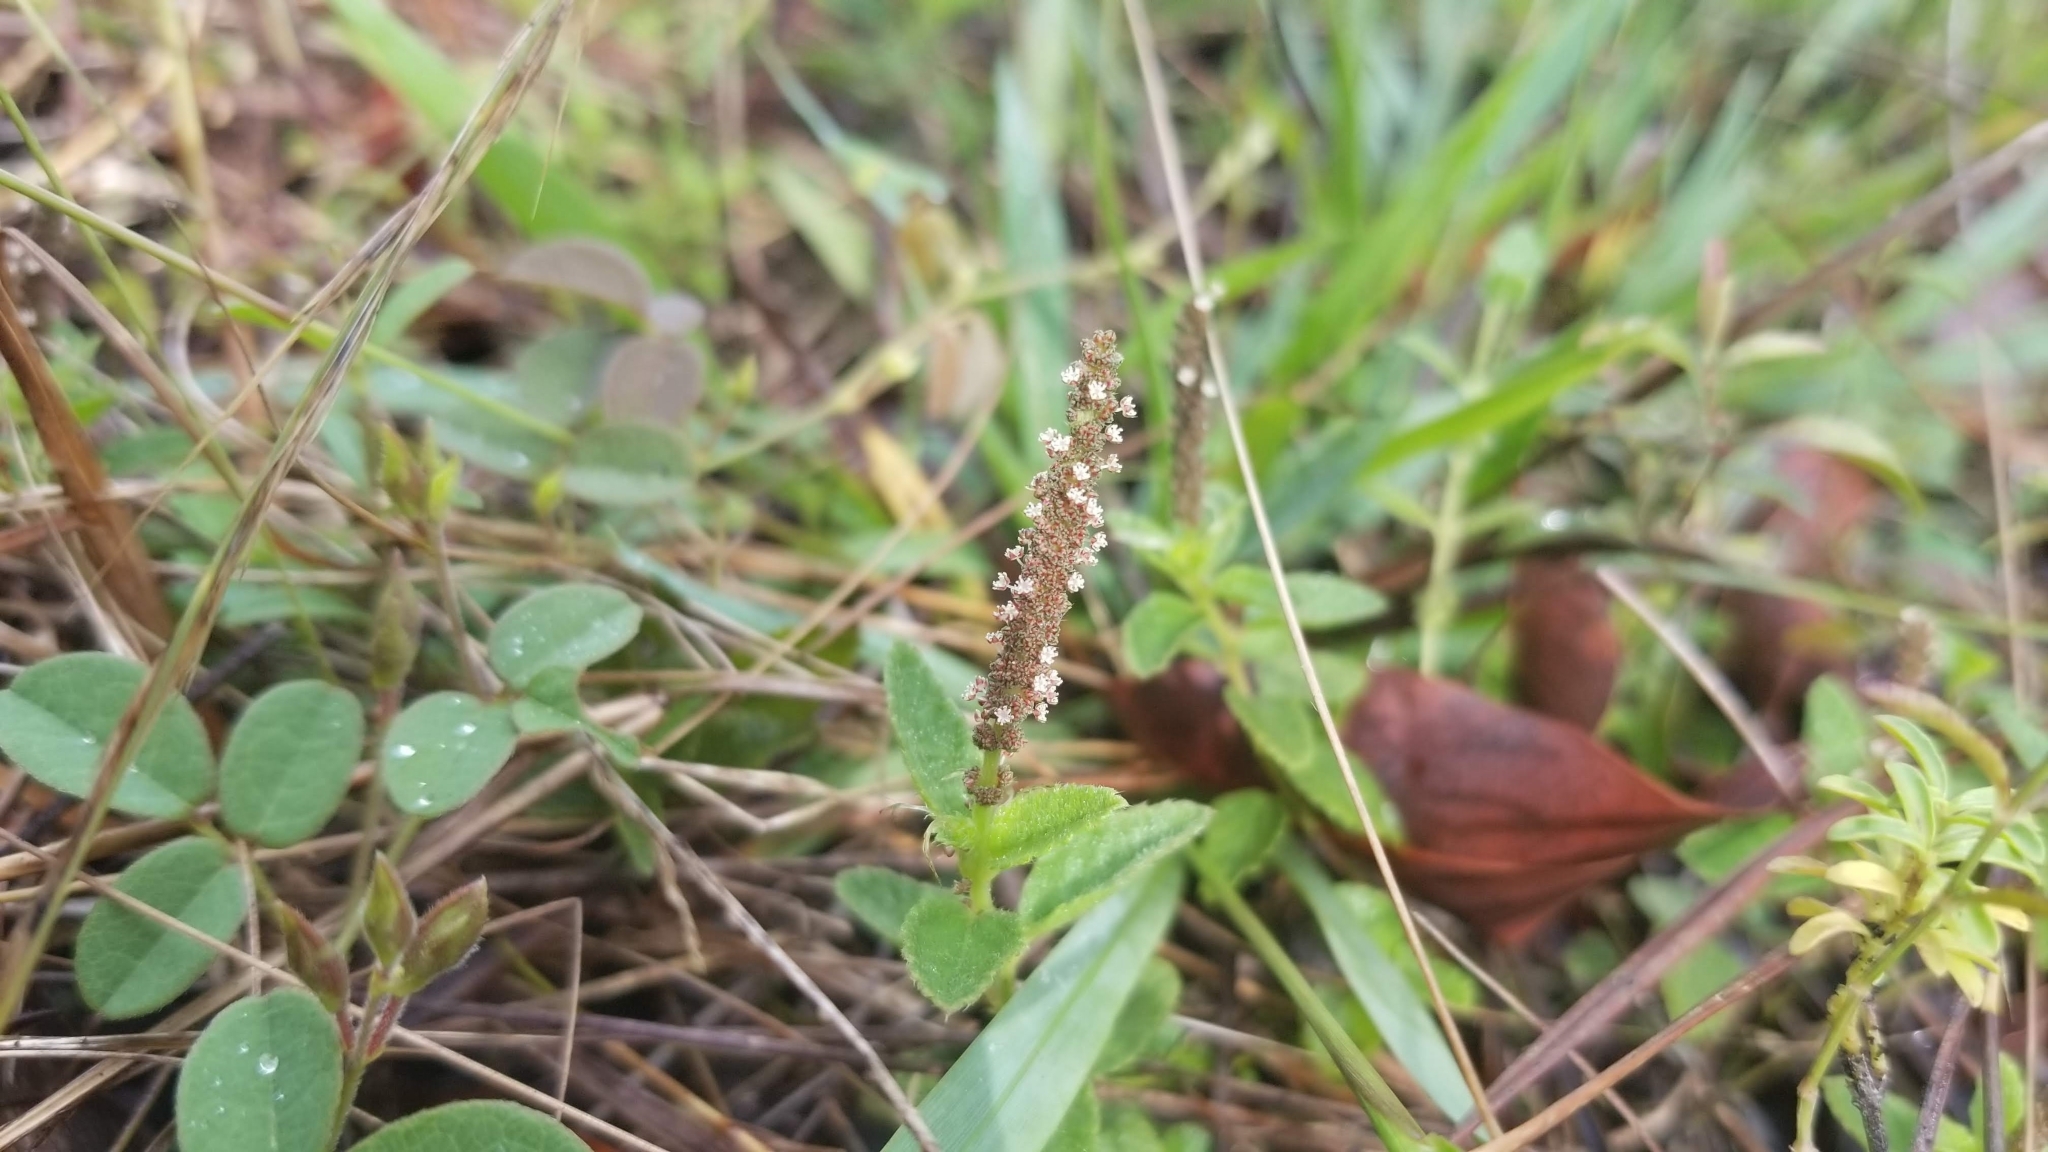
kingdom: Plantae
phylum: Tracheophyta
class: Magnoliopsida
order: Malpighiales
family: Euphorbiaceae
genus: Acalypha
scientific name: Acalypha chamaedrifolia
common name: Bastard copperleaf
